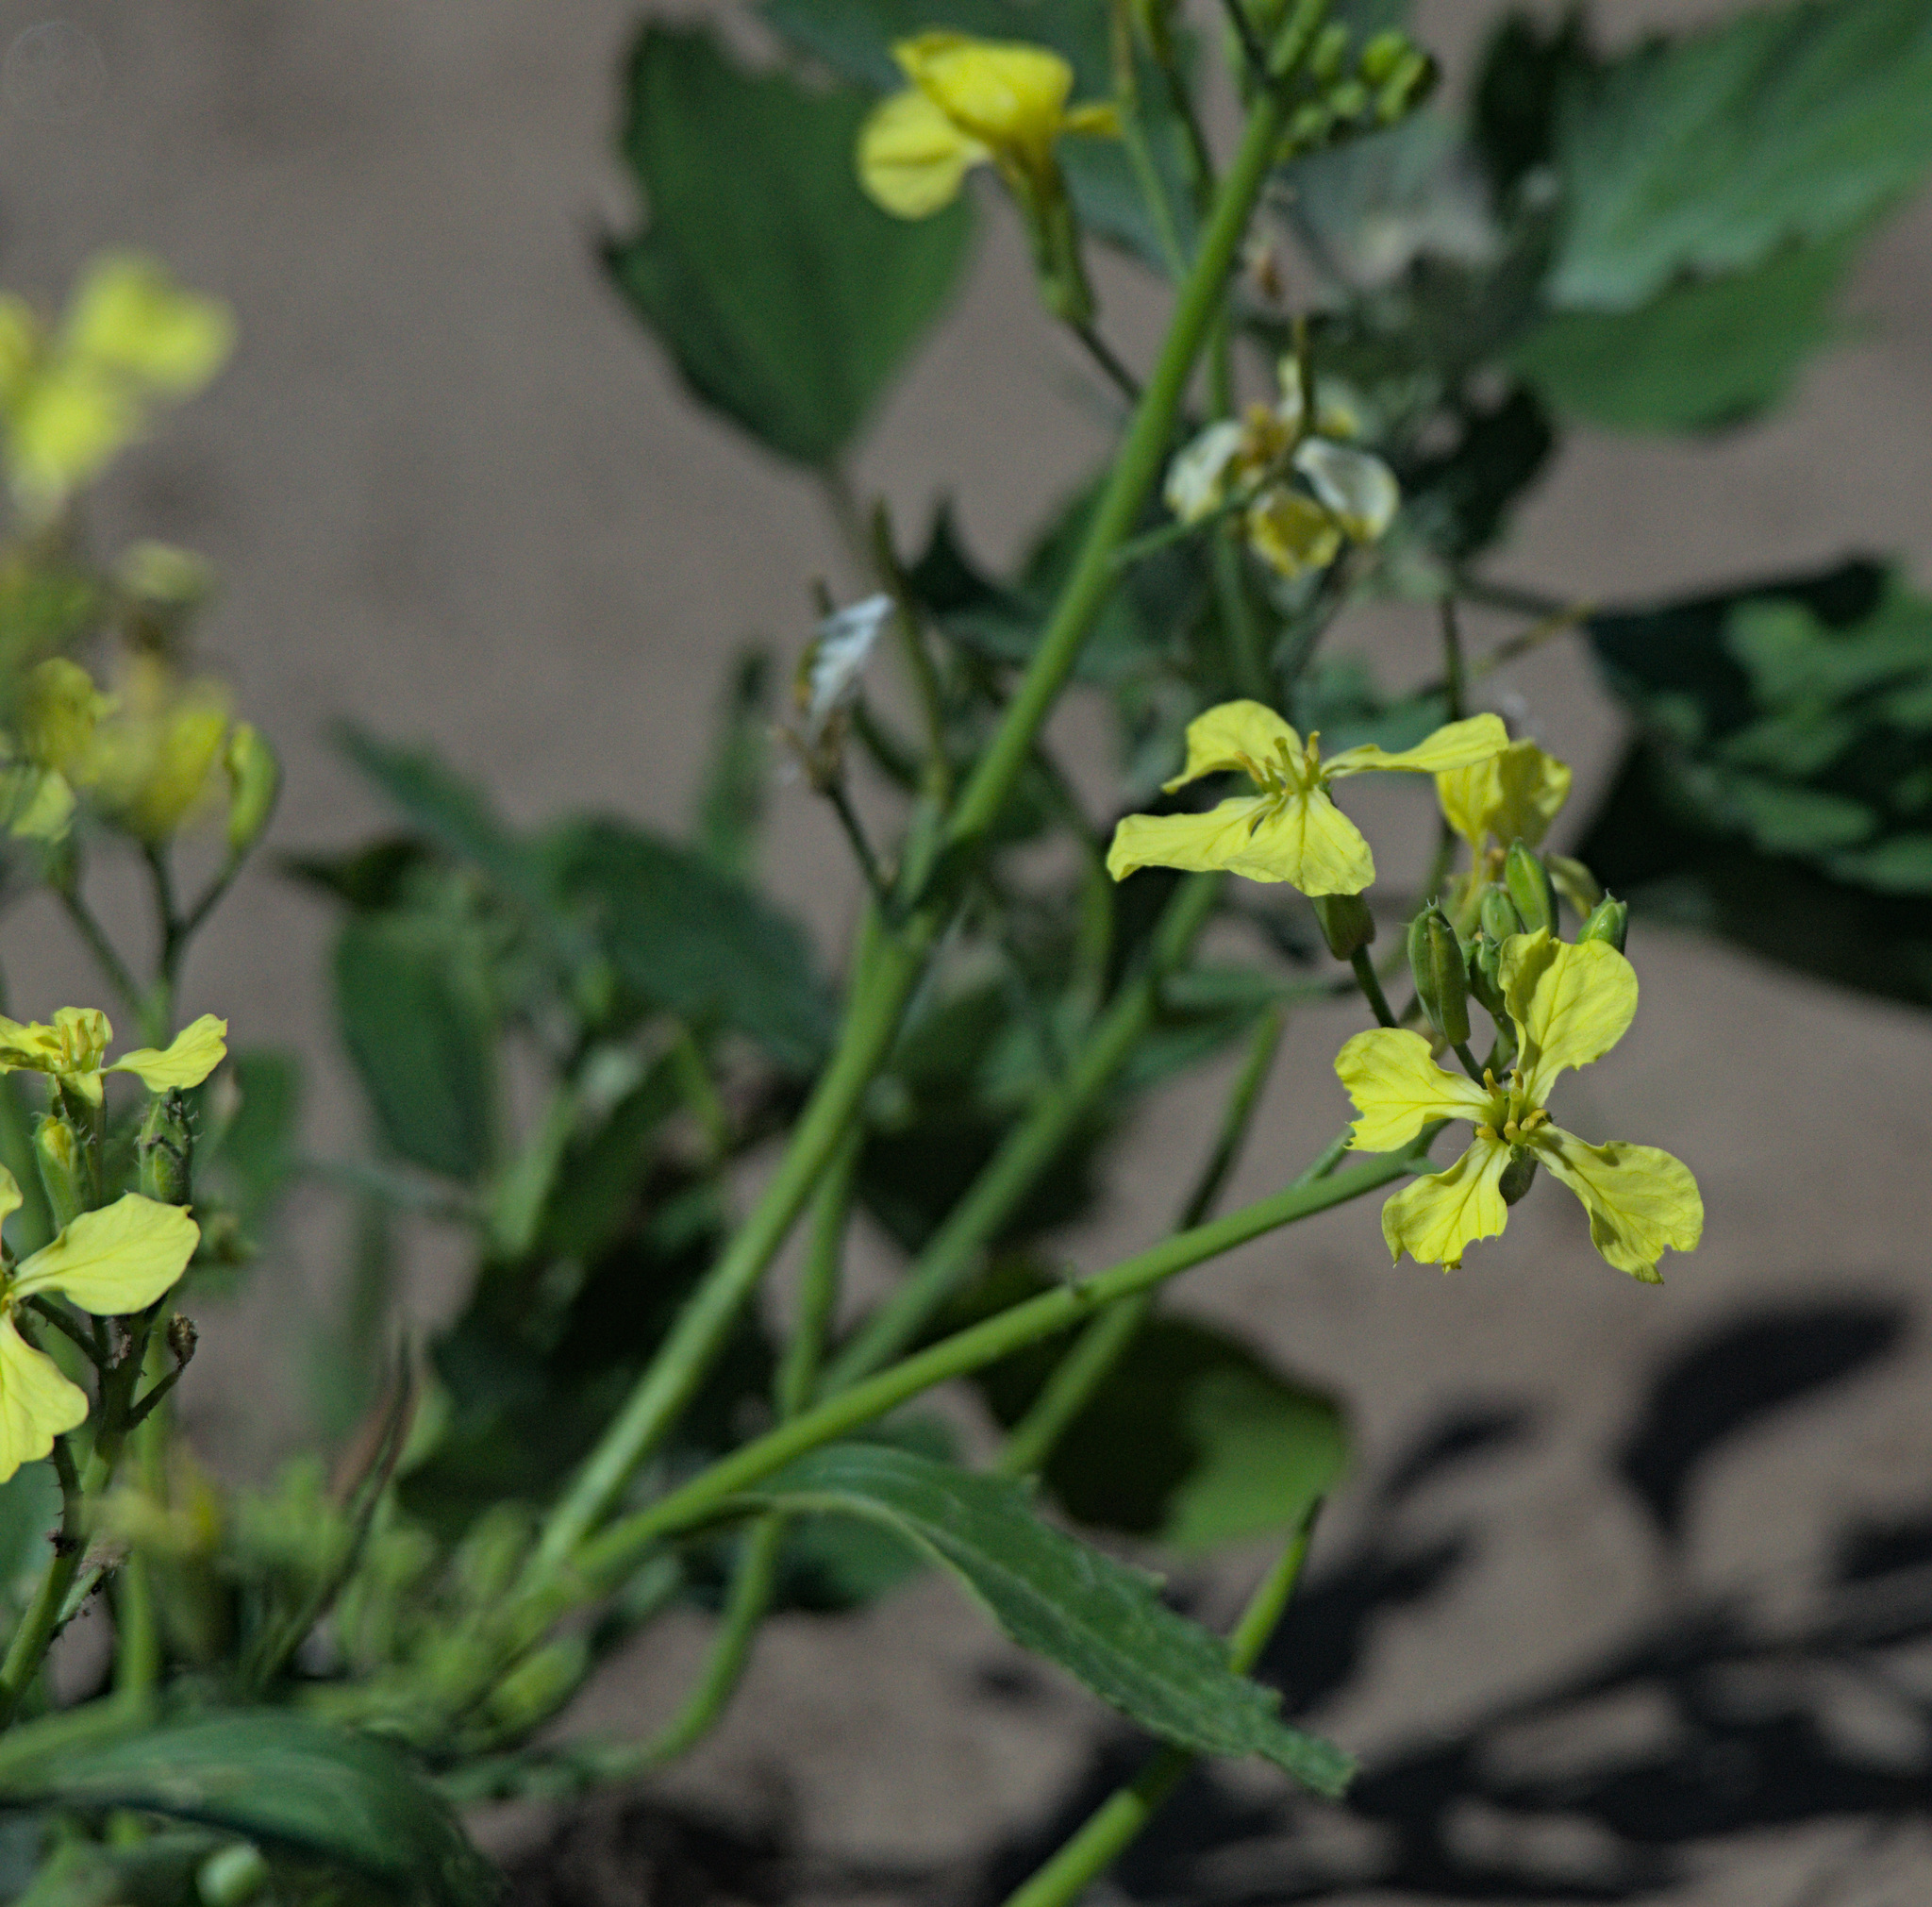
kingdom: Plantae
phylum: Tracheophyta
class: Magnoliopsida
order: Brassicales
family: Brassicaceae
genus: Raphanus
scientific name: Raphanus raphanistrum
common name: Wild radish
